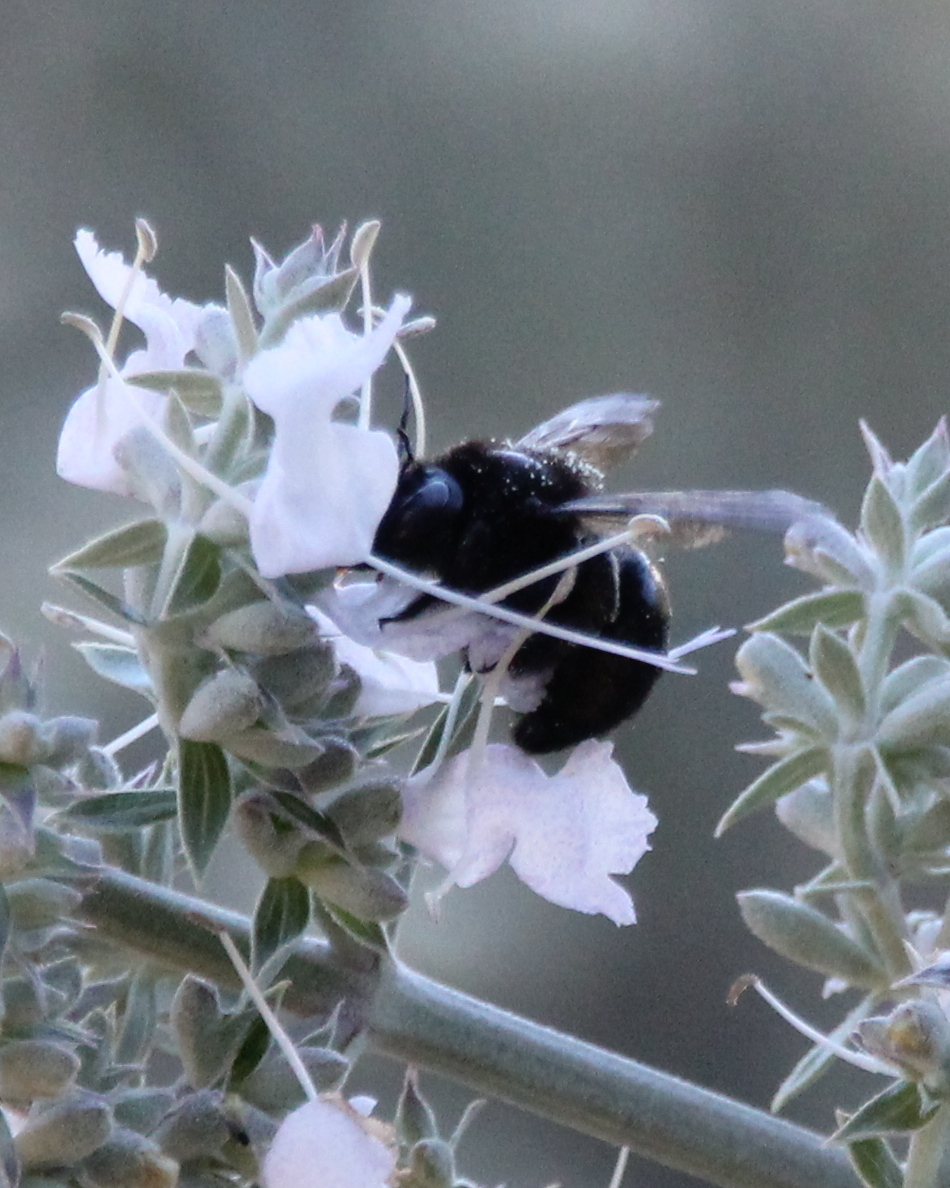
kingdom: Animalia
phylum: Arthropoda
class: Insecta
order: Hymenoptera
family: Apidae
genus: Xylocopa
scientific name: Xylocopa tabaniformis
